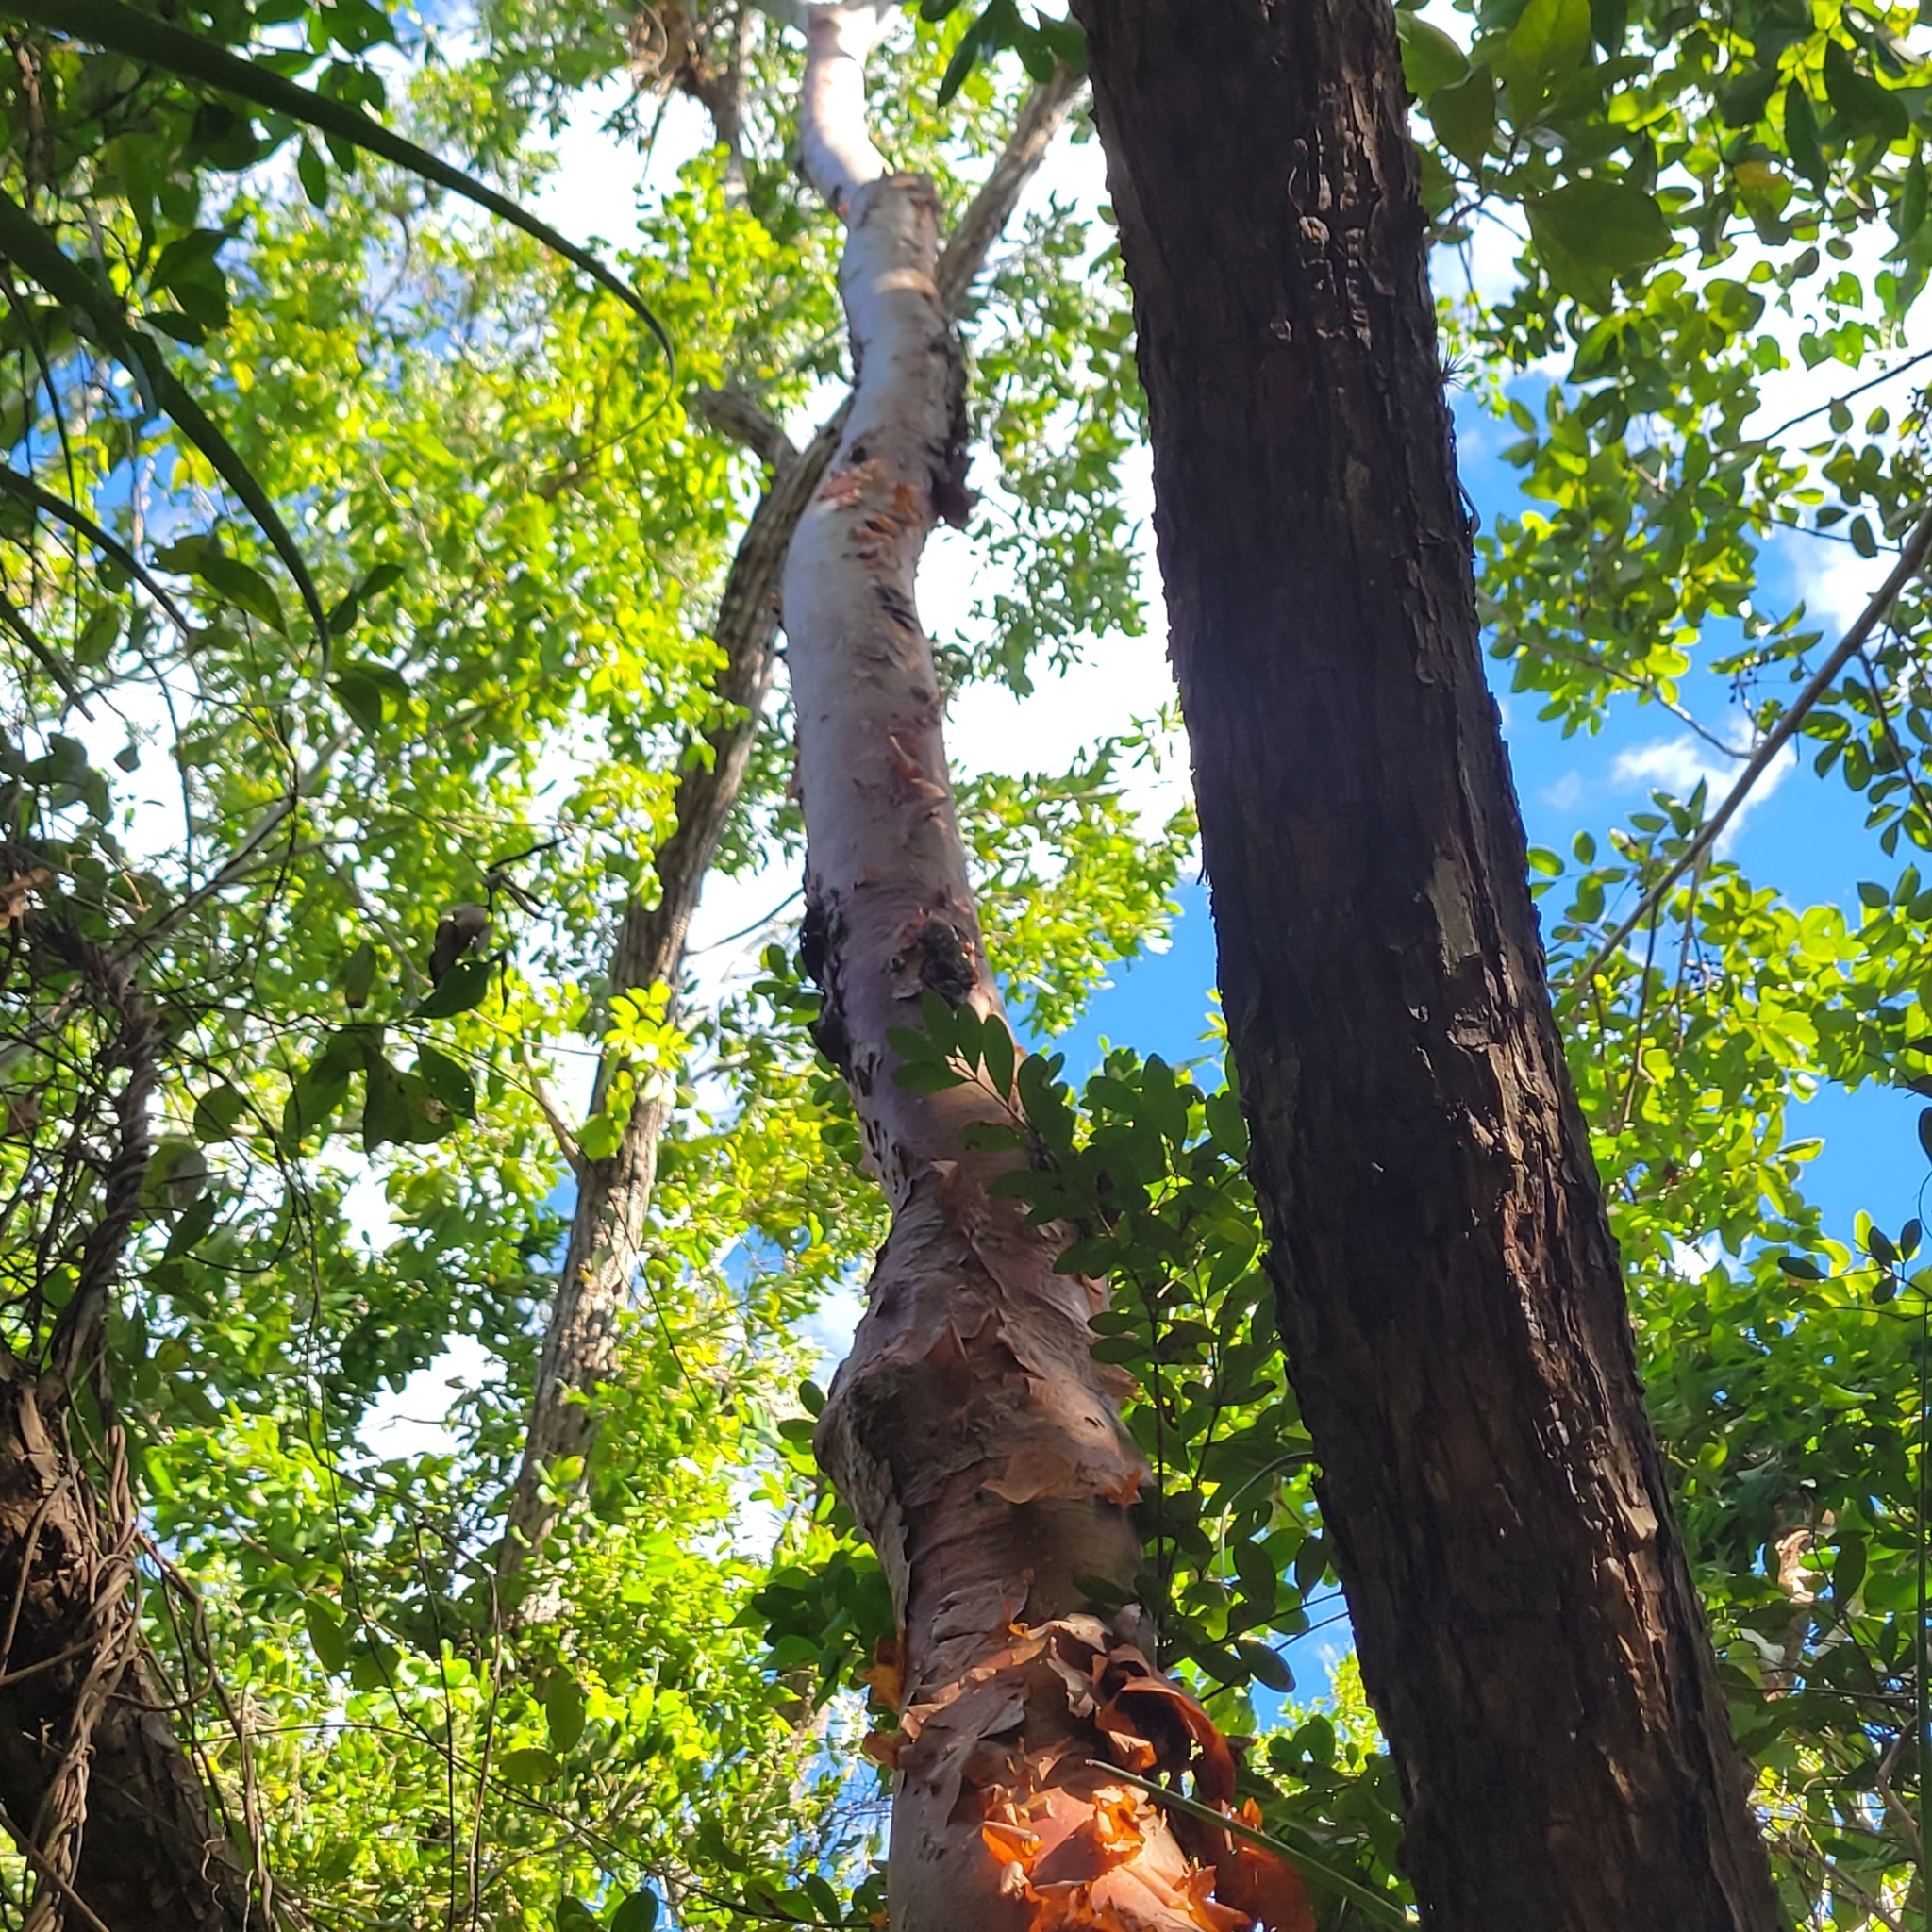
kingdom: Plantae
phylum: Tracheophyta
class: Magnoliopsida
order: Sapindales
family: Burseraceae
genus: Bursera
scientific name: Bursera simaruba
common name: Turpentine tree
